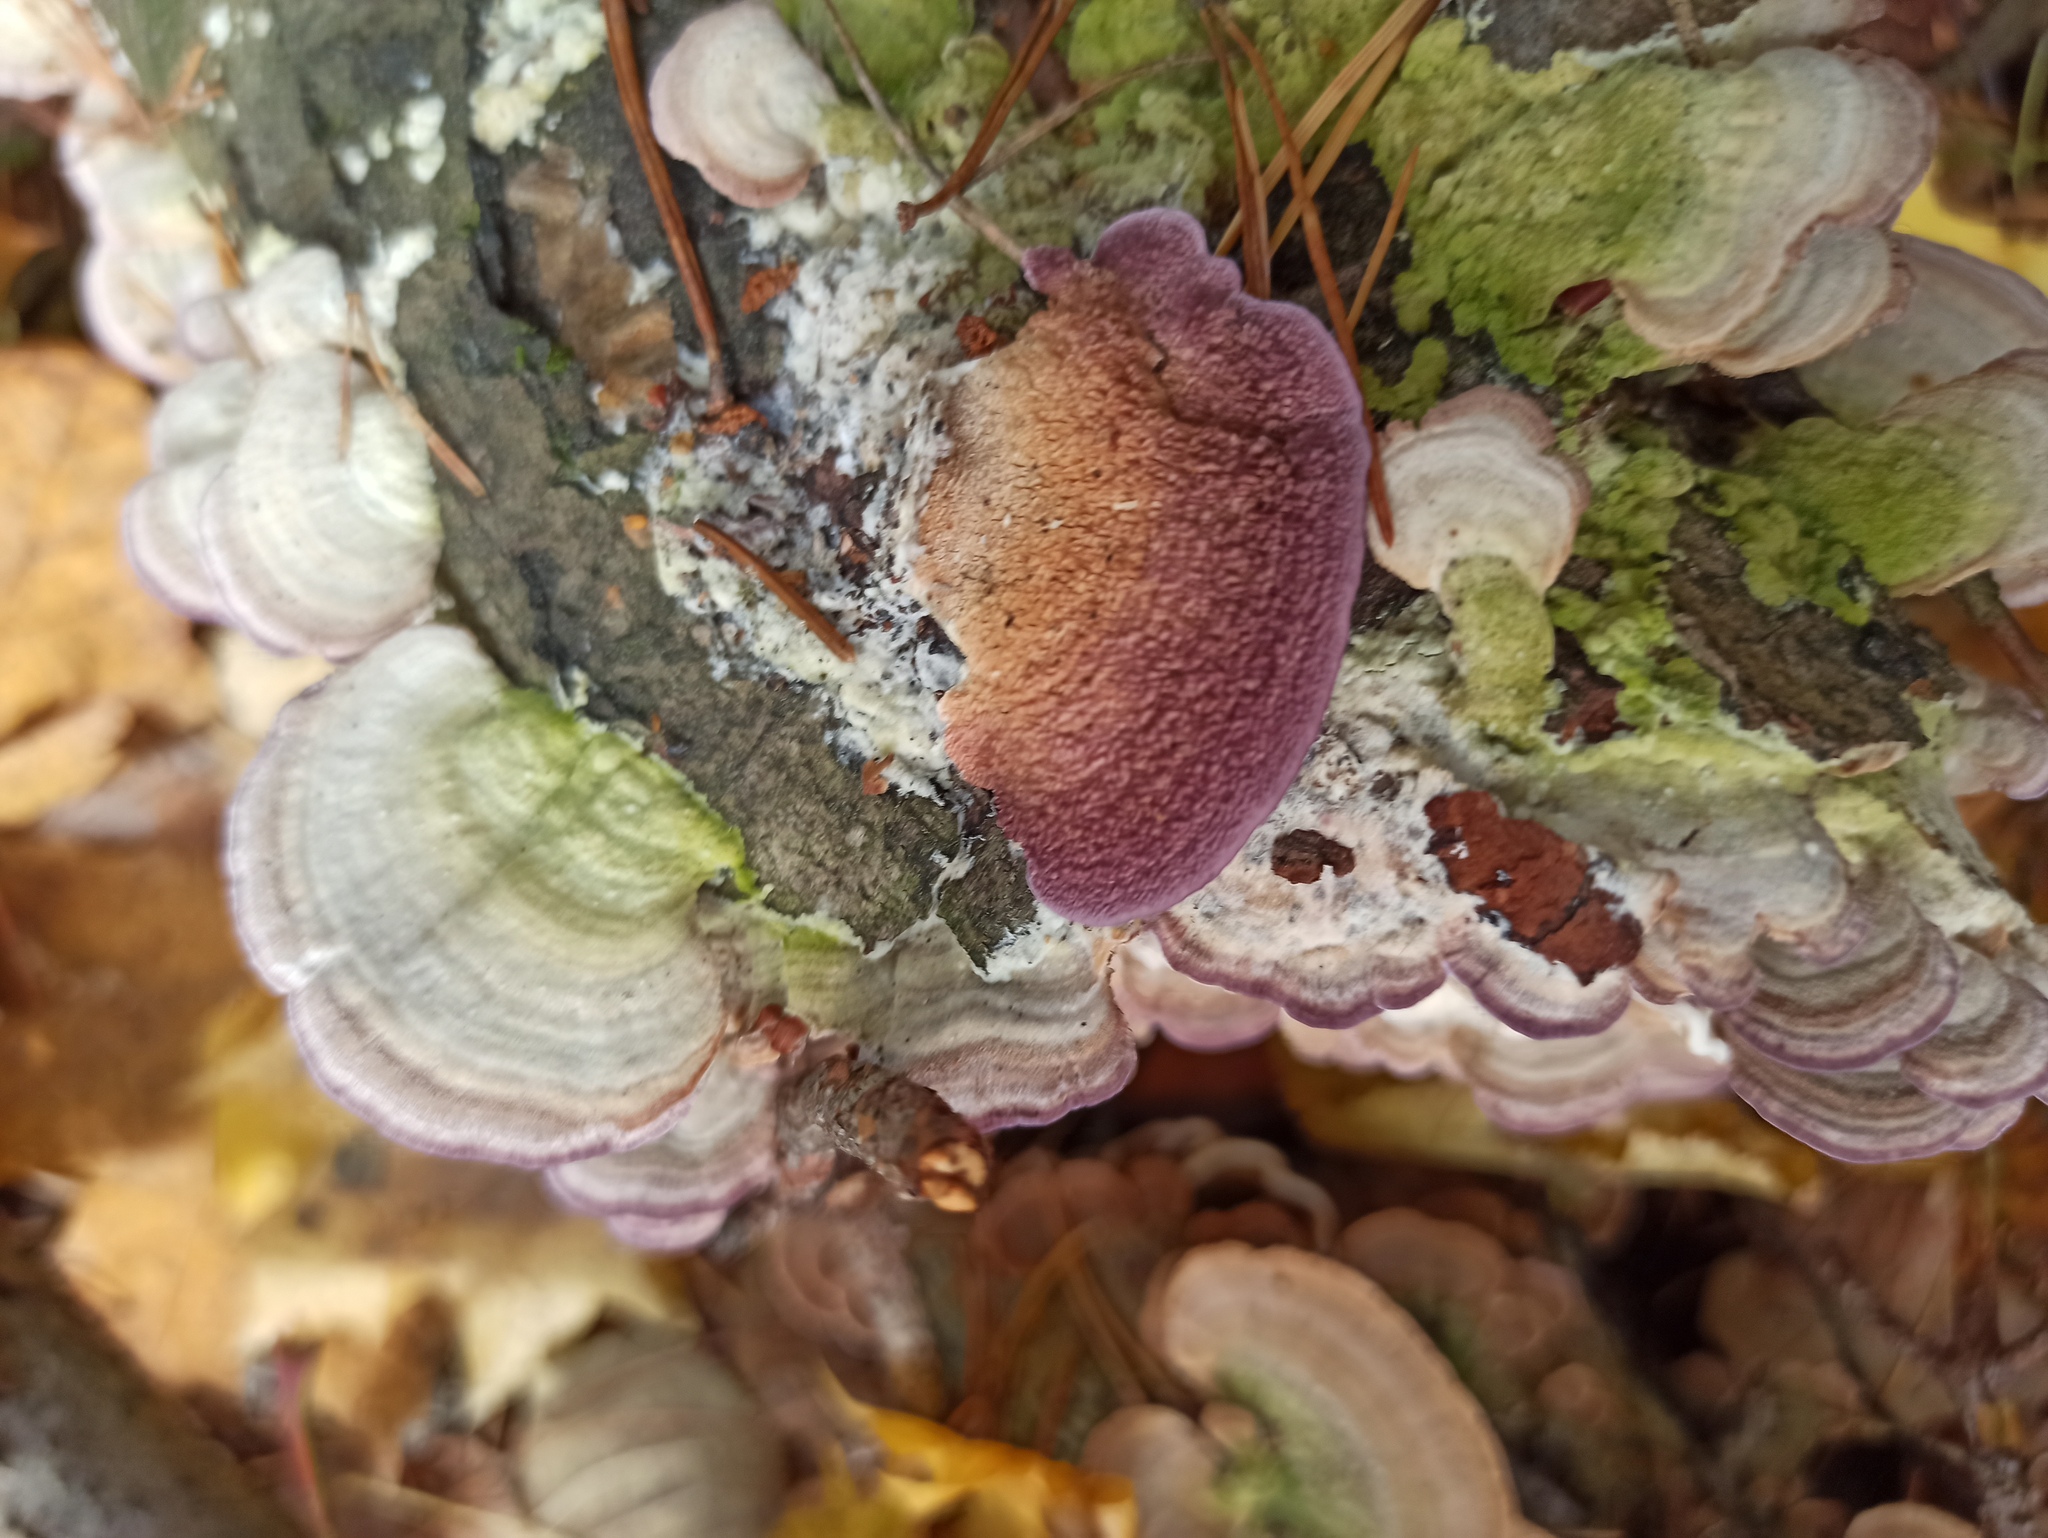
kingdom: Fungi
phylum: Basidiomycota
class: Agaricomycetes
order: Hymenochaetales
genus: Trichaptum
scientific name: Trichaptum biforme
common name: Violet-toothed polypore
